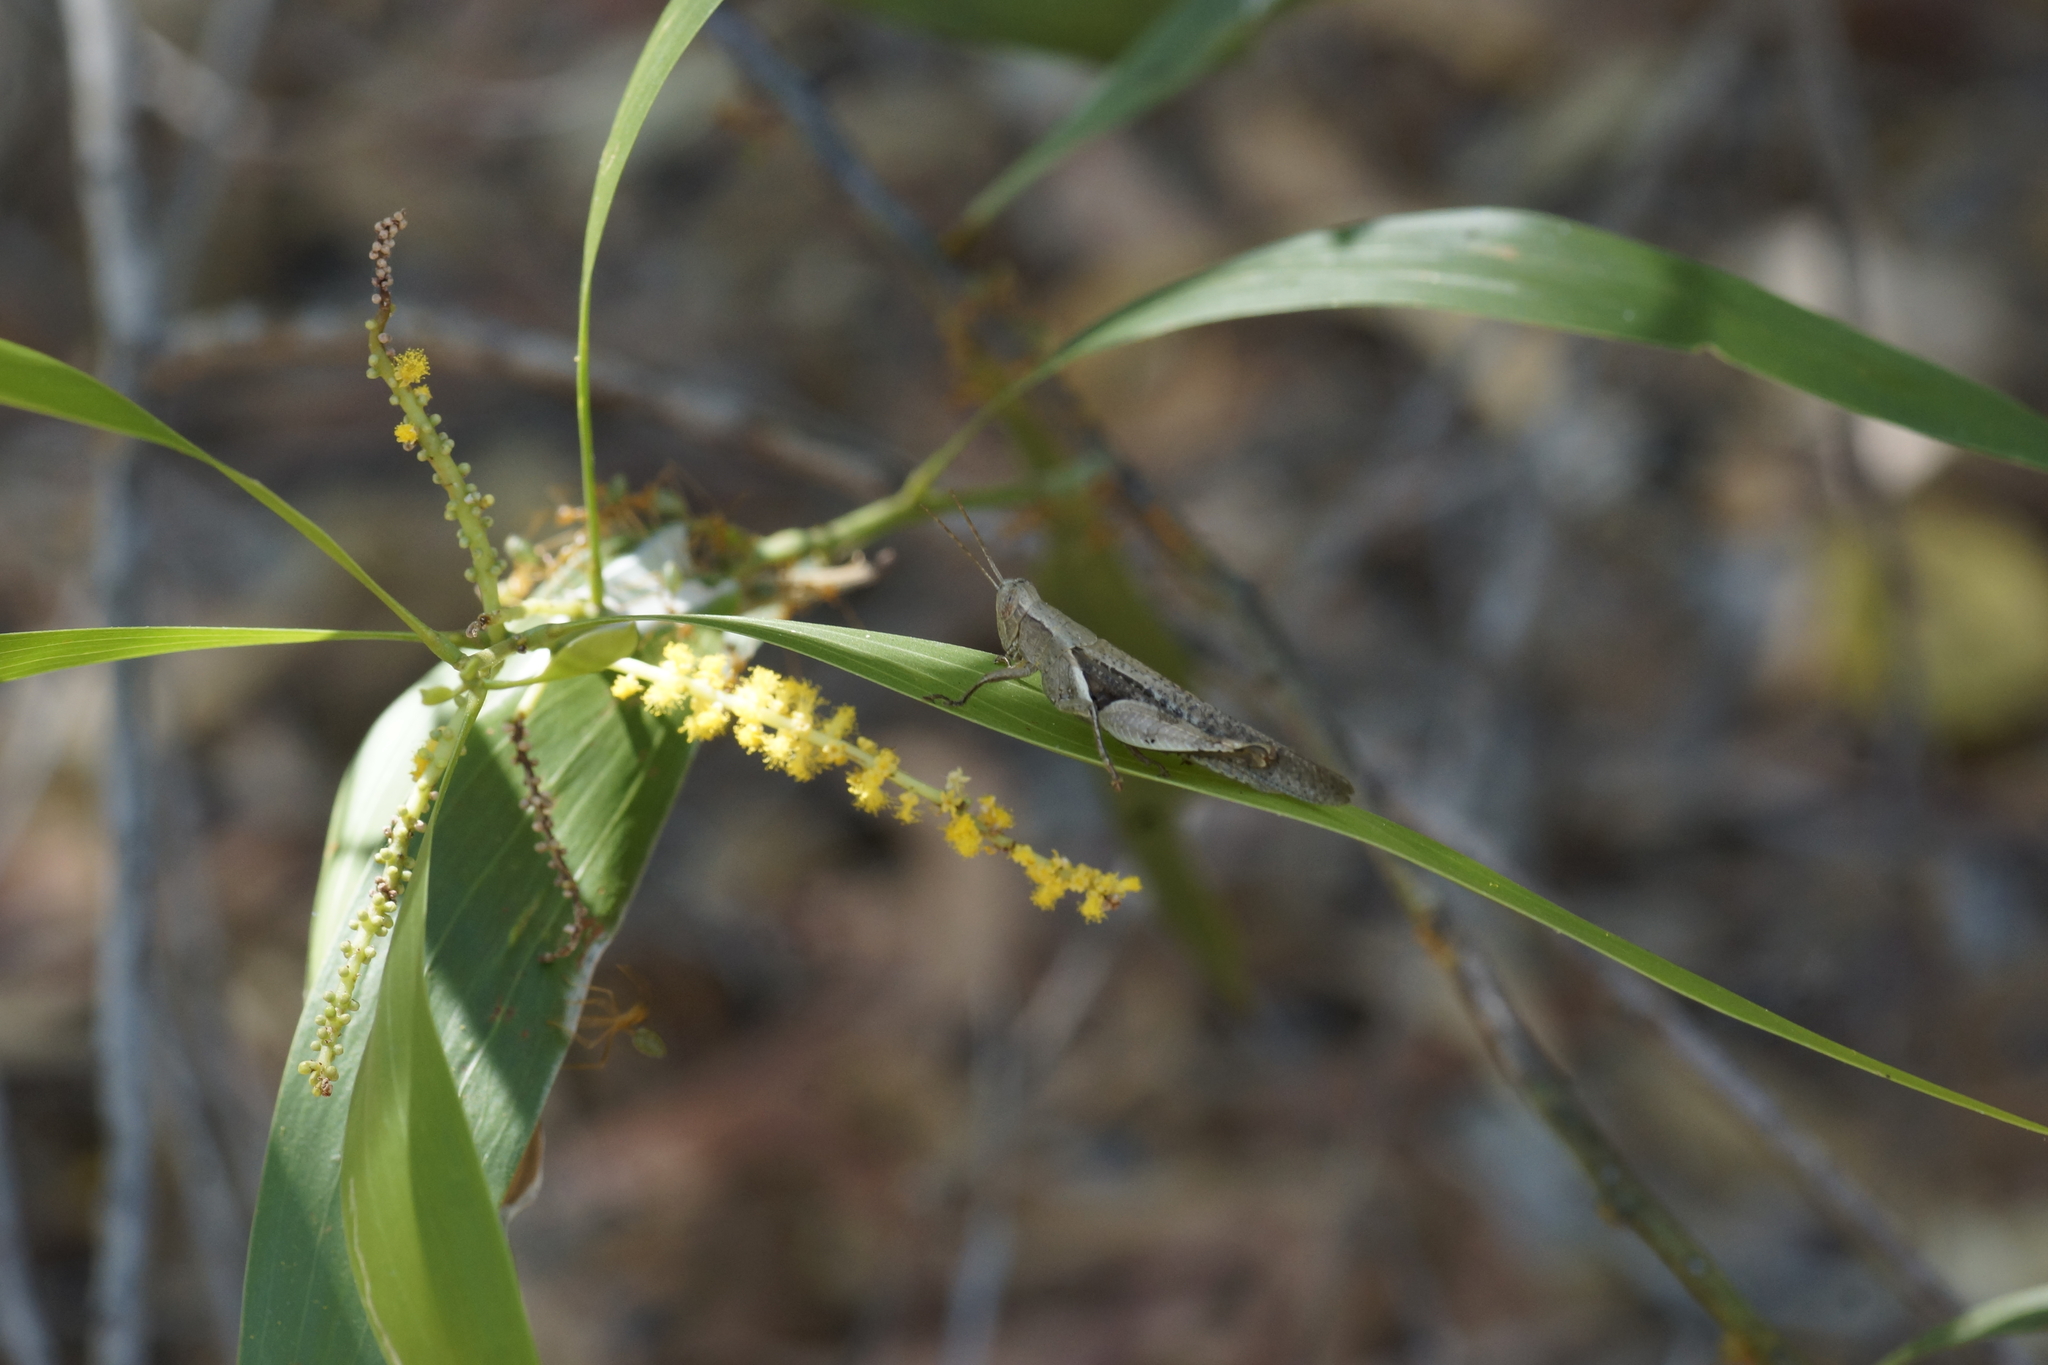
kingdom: Animalia
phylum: Arthropoda
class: Insecta
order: Orthoptera
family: Acrididae
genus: Stenocatantops
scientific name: Stenocatantops angustifrons
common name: Common tropical sharptail
